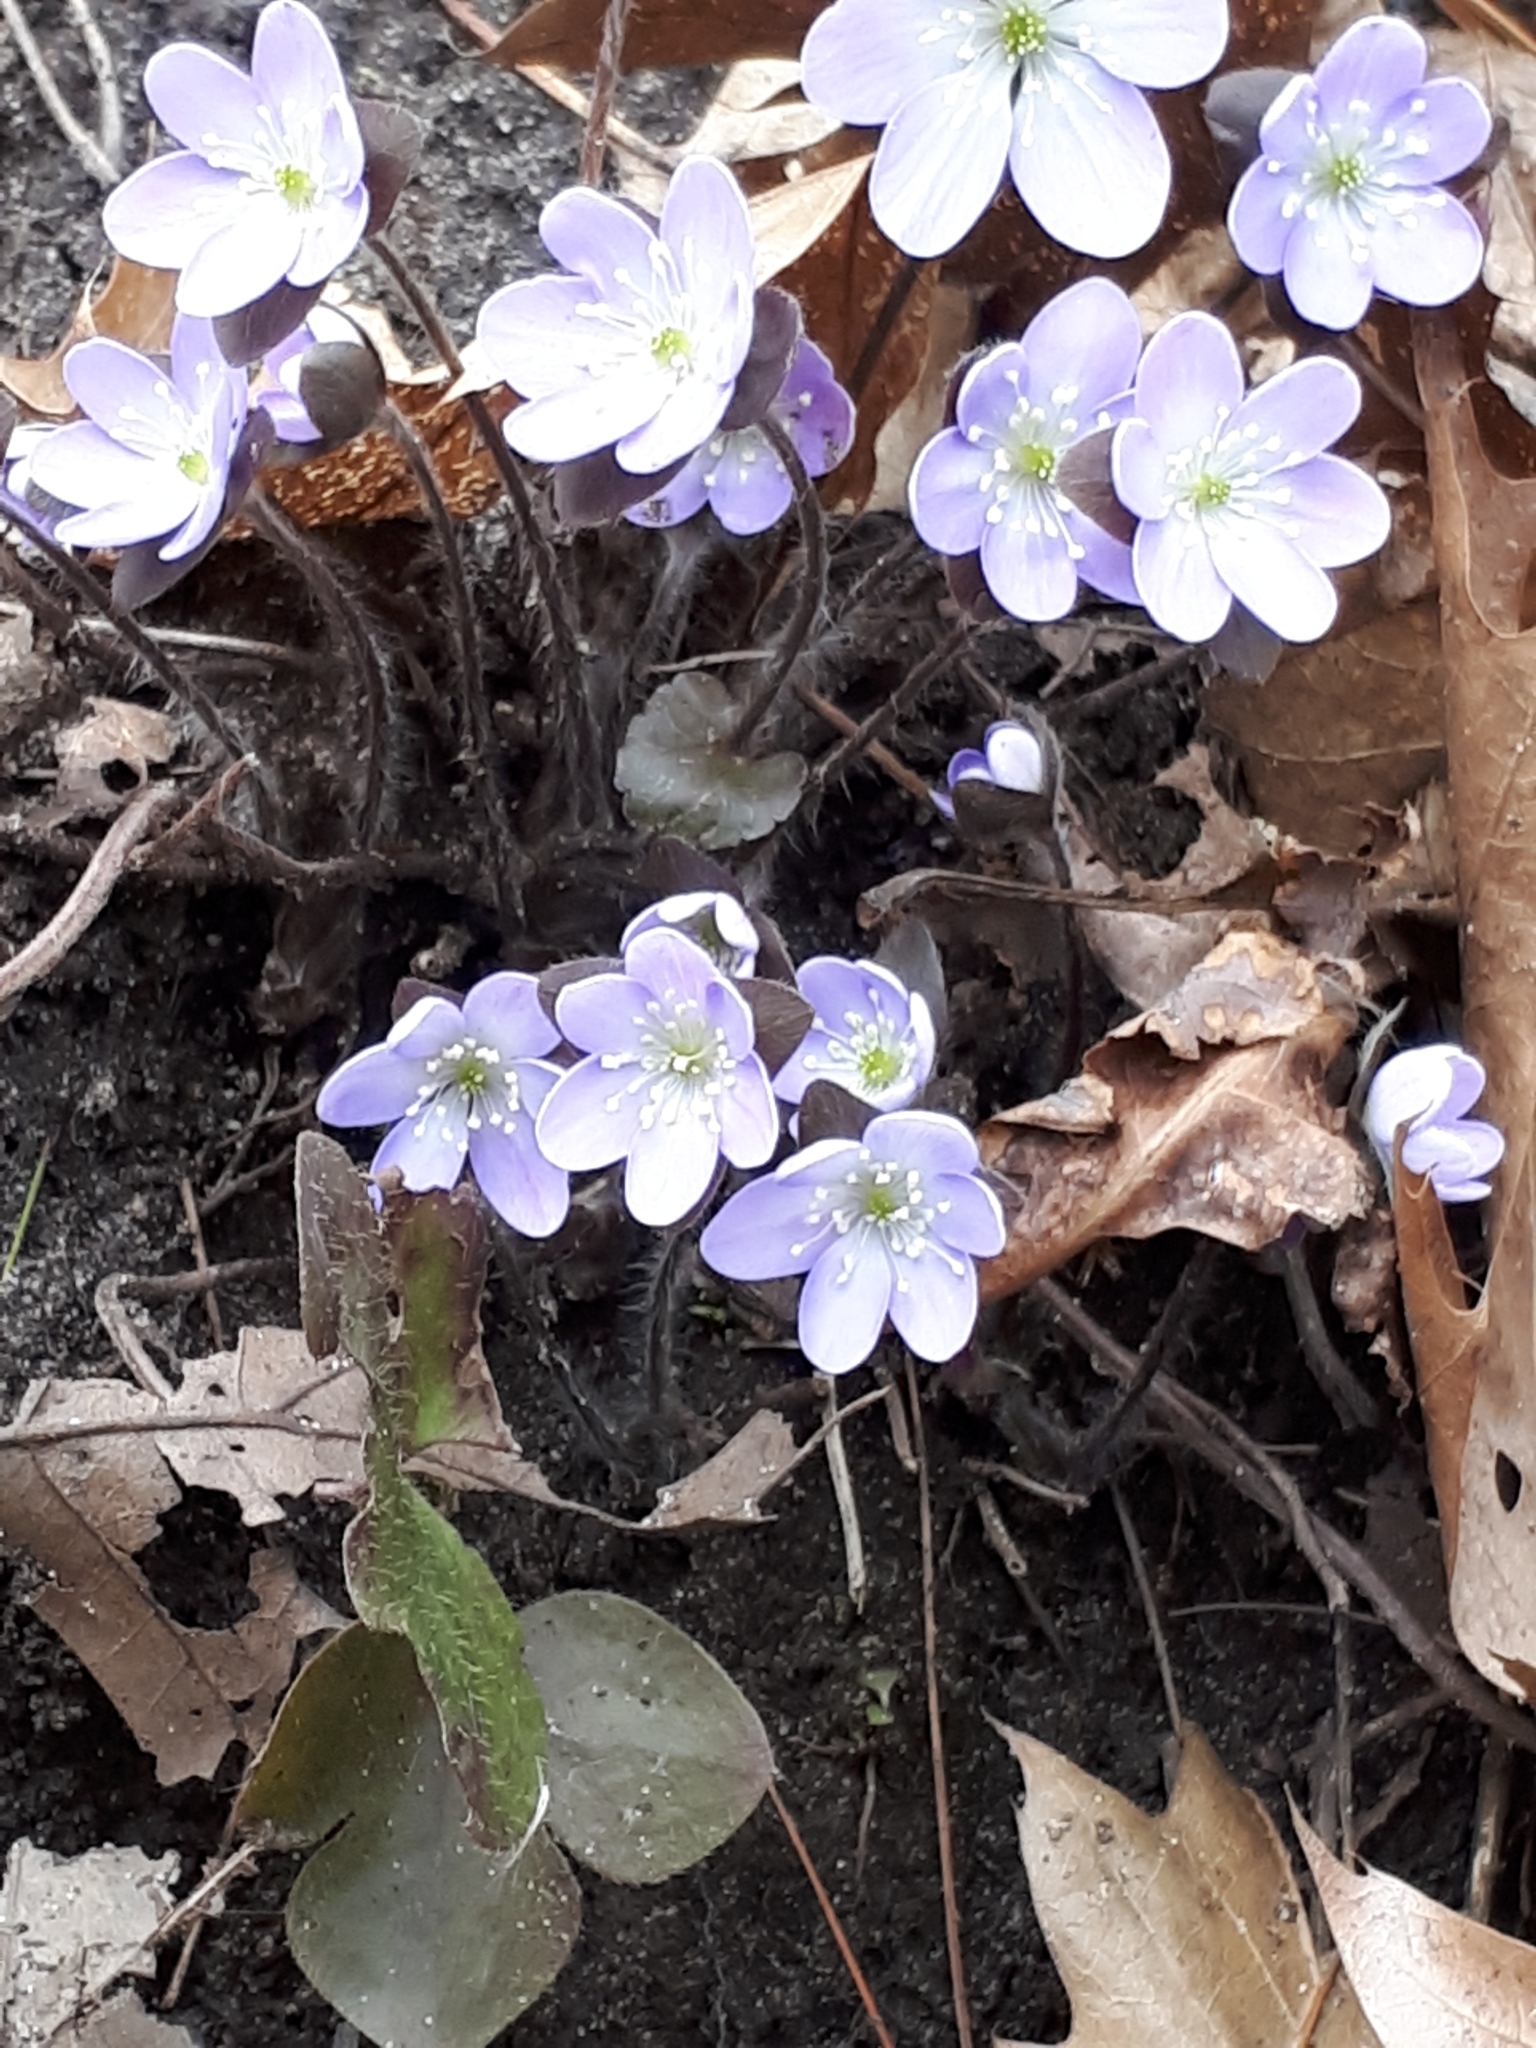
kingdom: Plantae
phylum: Tracheophyta
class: Magnoliopsida
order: Ranunculales
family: Ranunculaceae
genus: Hepatica
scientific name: Hepatica americana
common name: American hepatica
